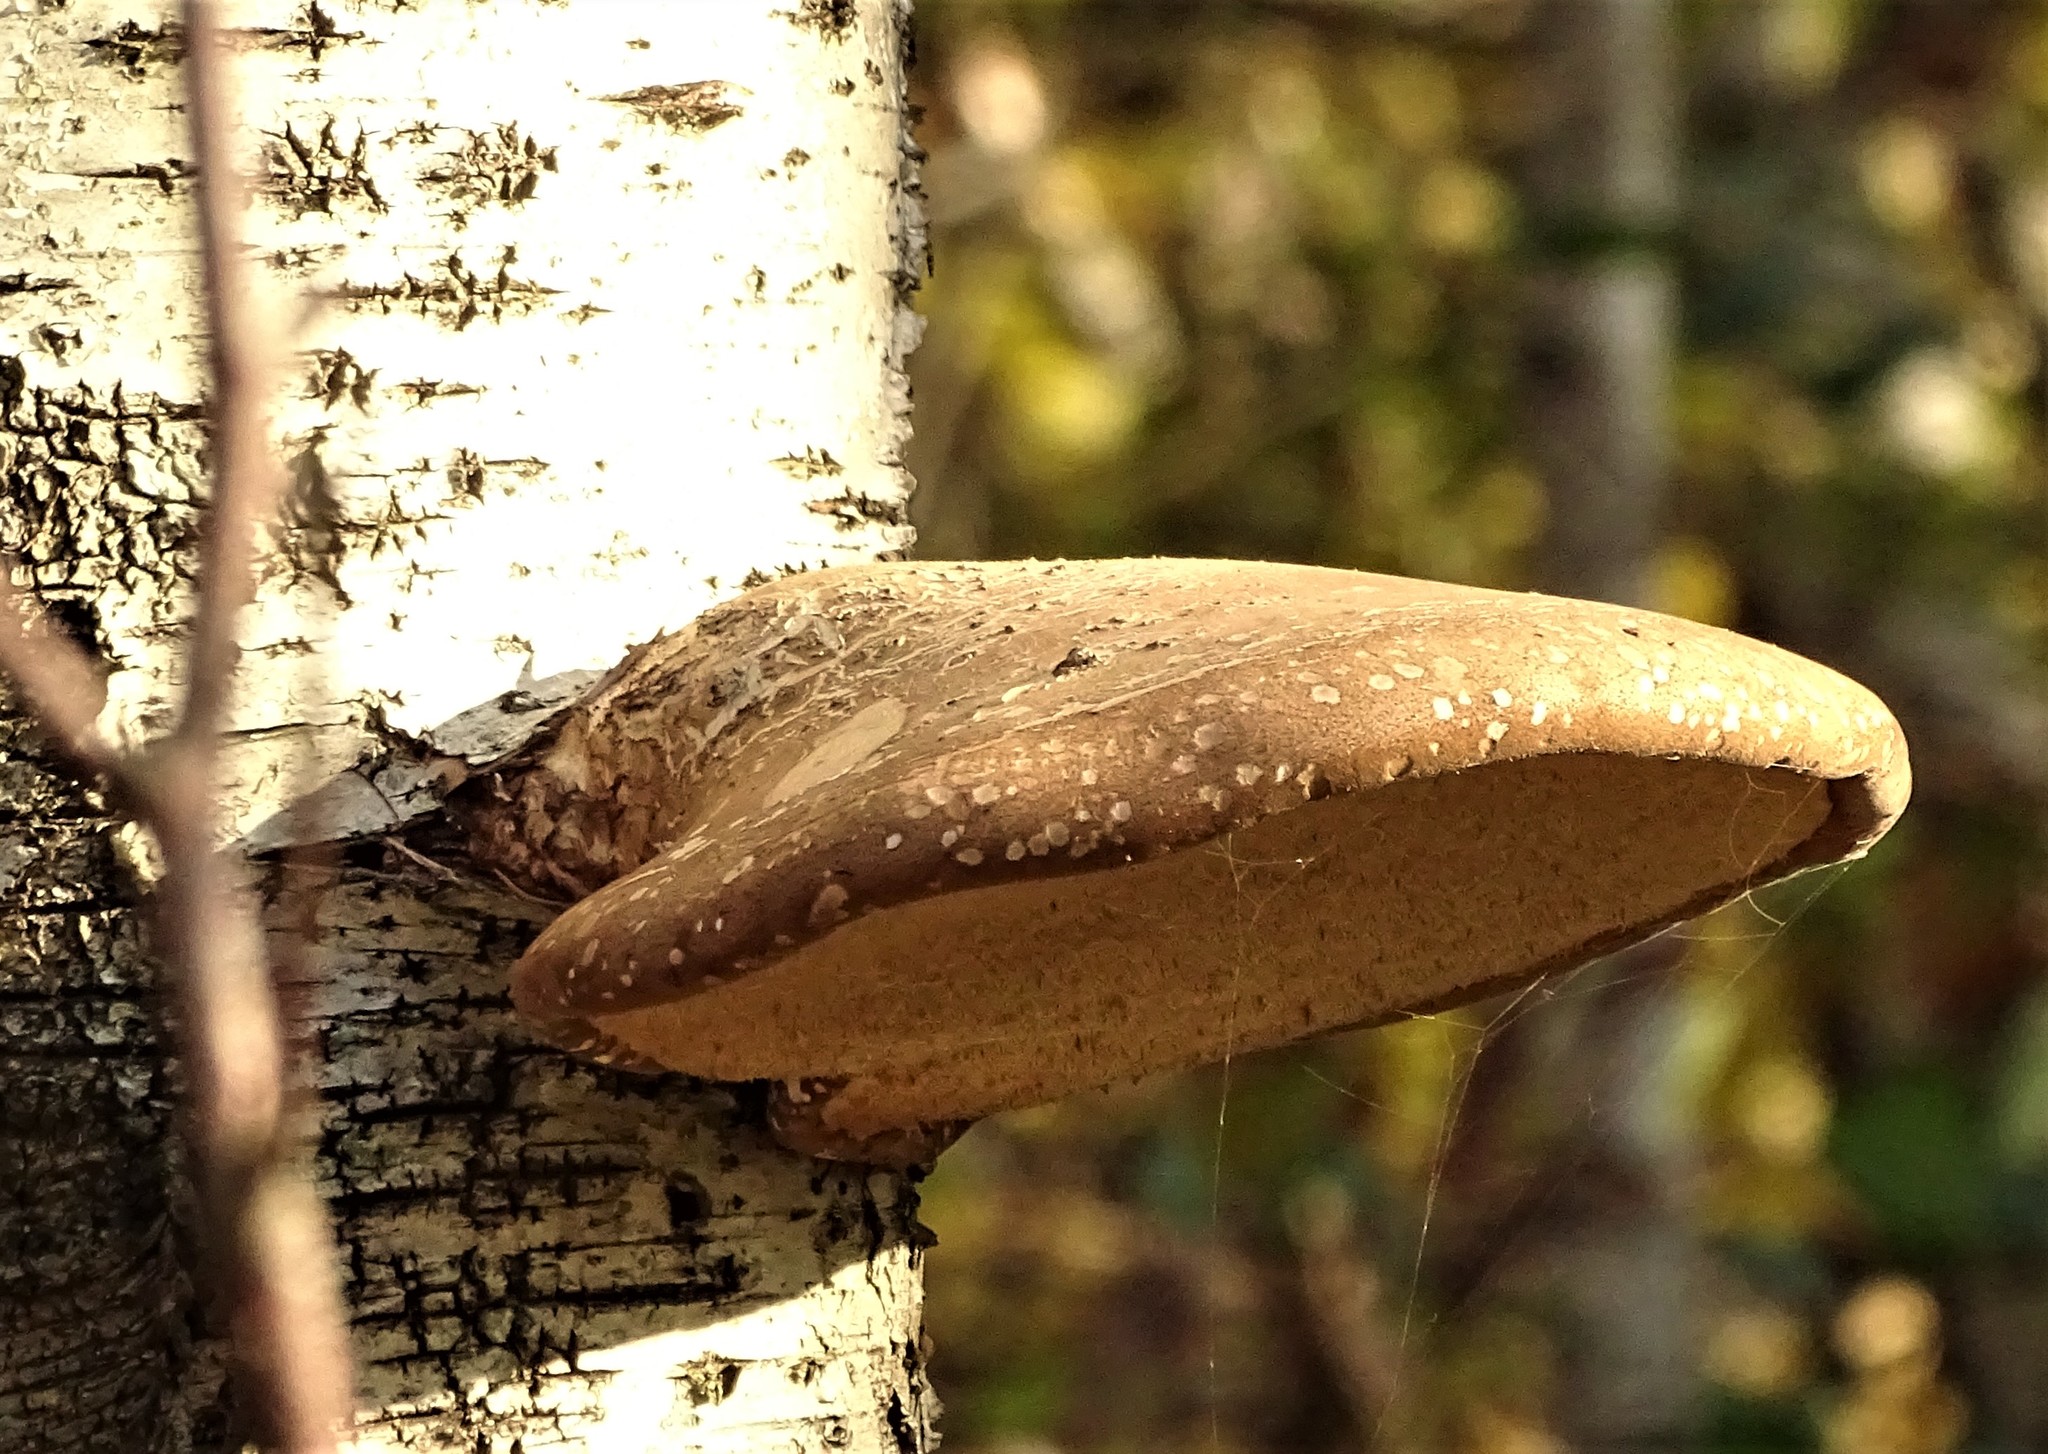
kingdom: Fungi
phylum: Basidiomycota
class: Agaricomycetes
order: Polyporales
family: Fomitopsidaceae
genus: Fomitopsis
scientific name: Fomitopsis betulina
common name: Birch polypore
